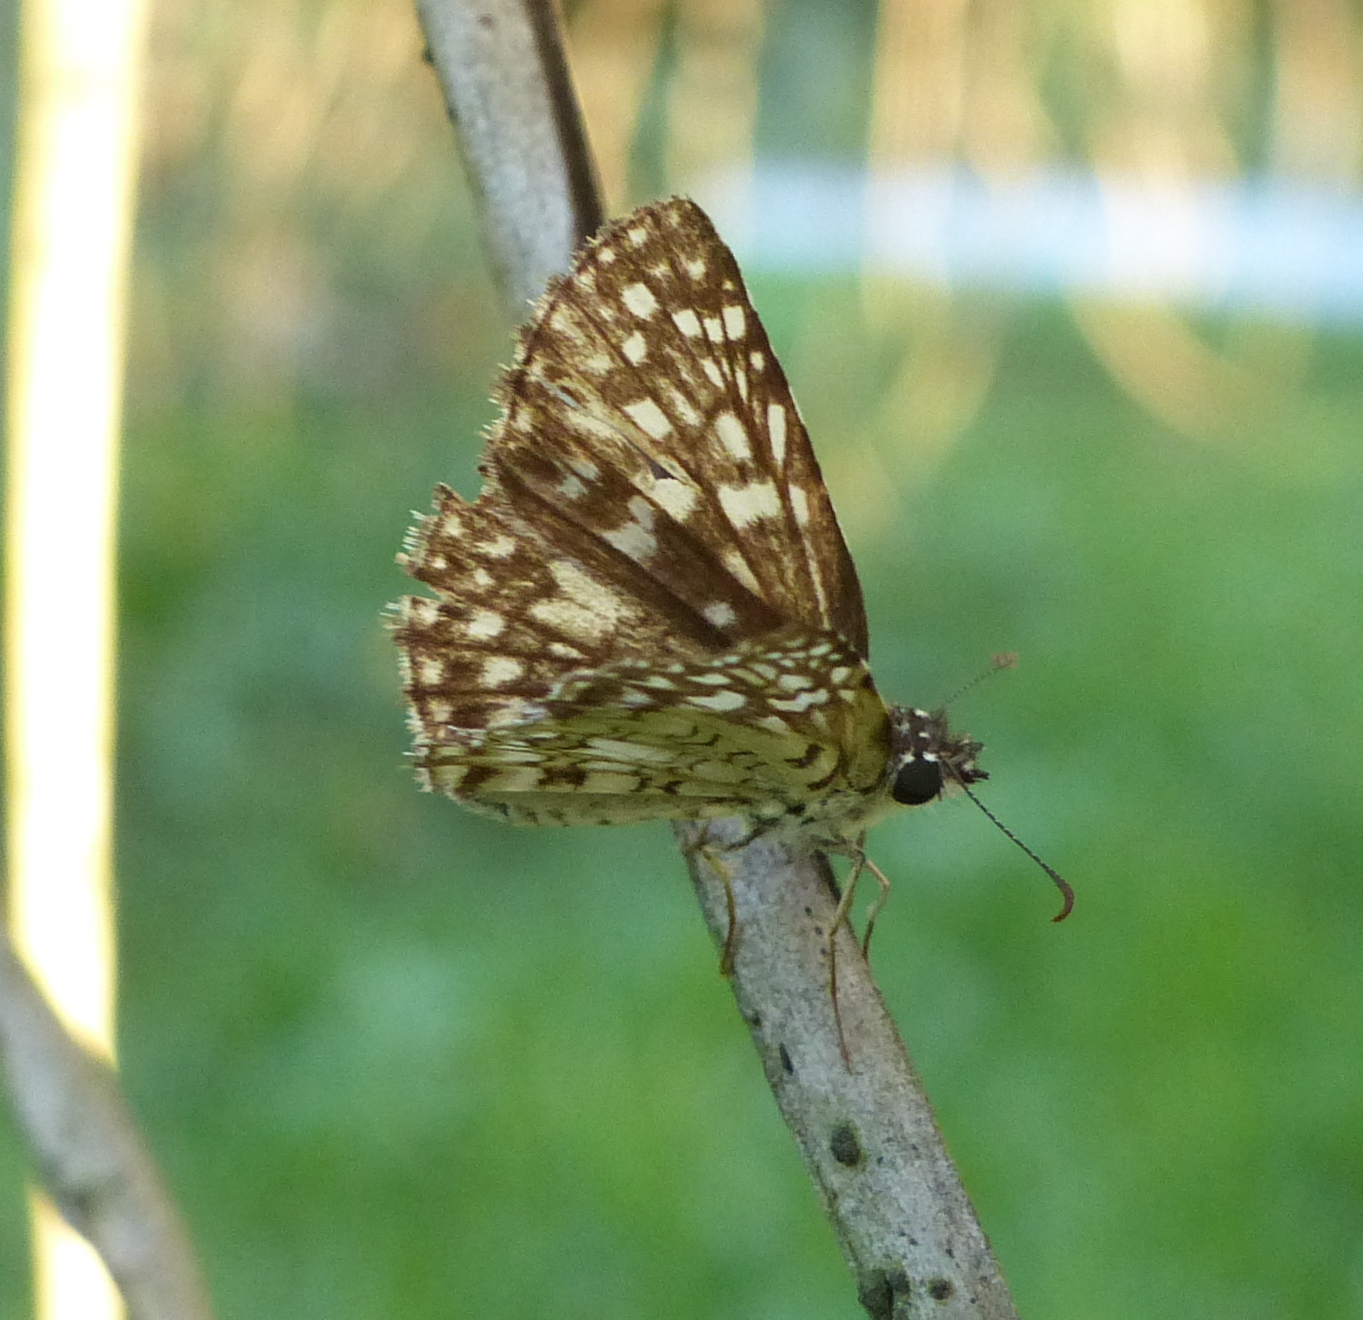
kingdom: Animalia
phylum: Arthropoda
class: Insecta
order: Lepidoptera
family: Hesperiidae
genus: Pyrgus
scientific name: Pyrgus oileus
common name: Tropical checkered-skipper
